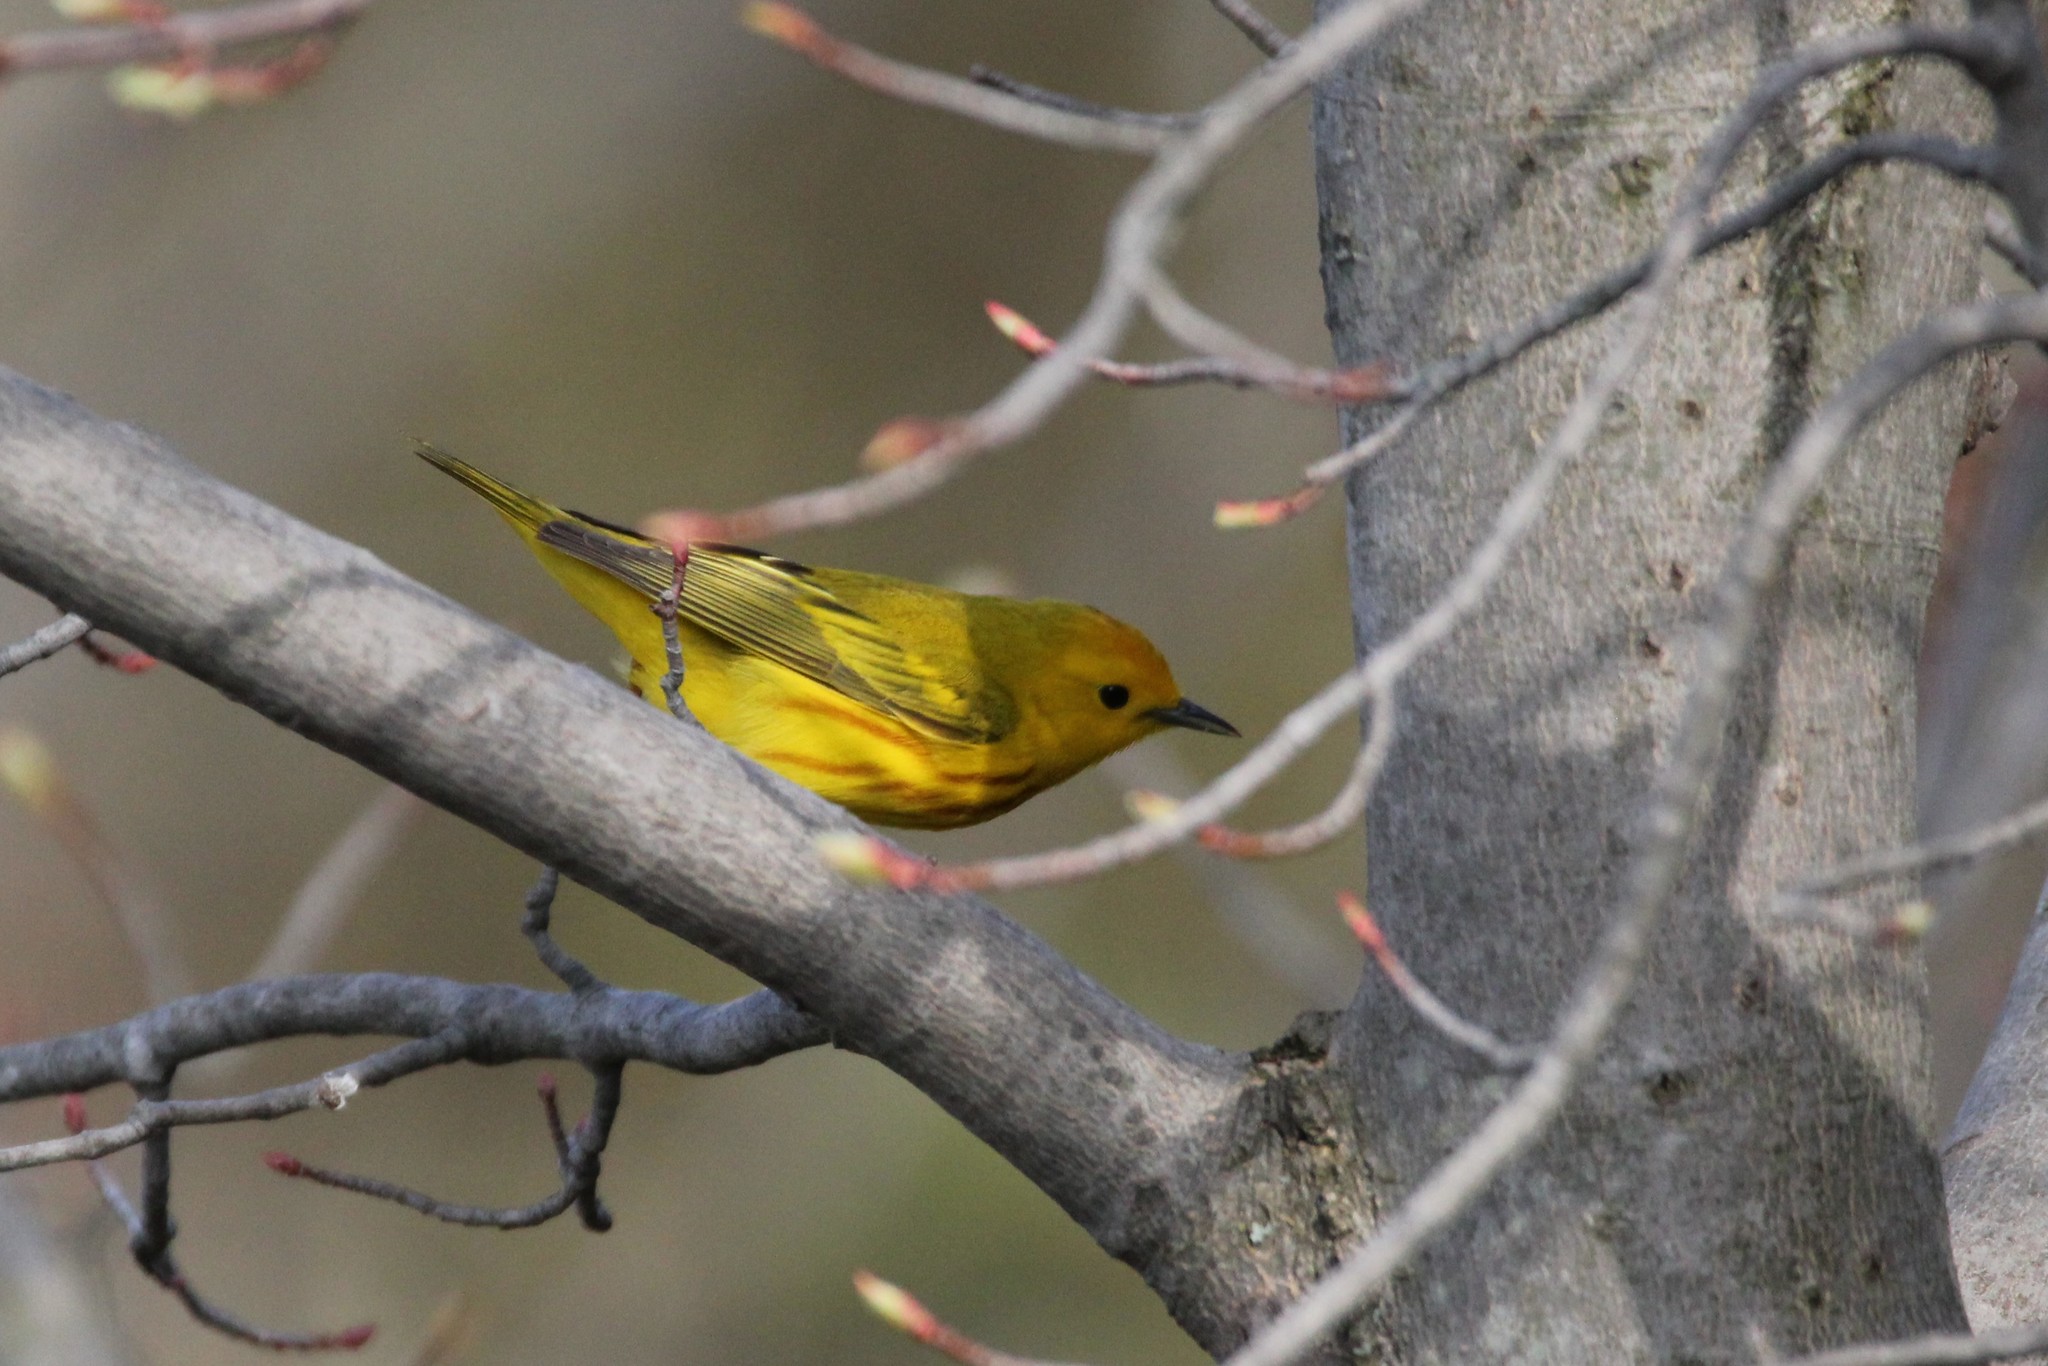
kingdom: Animalia
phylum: Chordata
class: Aves
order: Passeriformes
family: Parulidae
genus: Setophaga
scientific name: Setophaga petechia
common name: Yellow warbler
